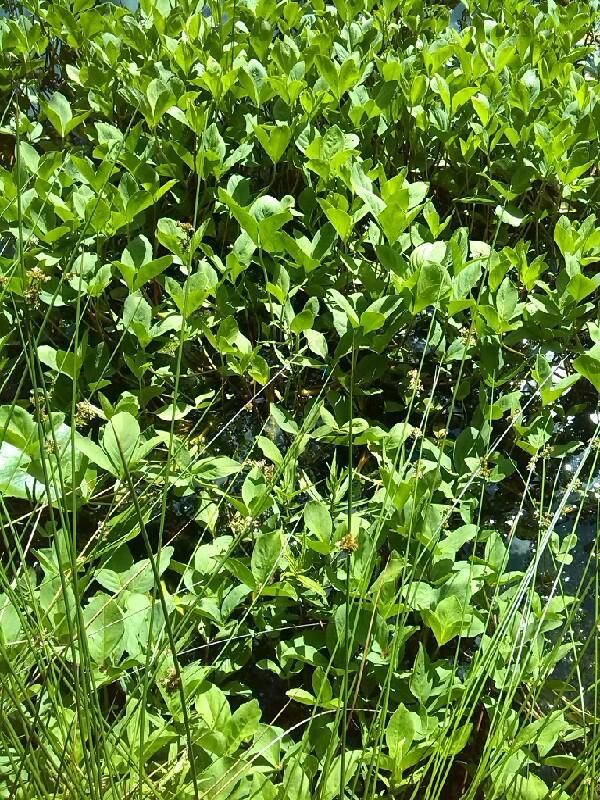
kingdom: Plantae
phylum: Tracheophyta
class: Magnoliopsida
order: Asterales
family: Menyanthaceae
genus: Menyanthes
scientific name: Menyanthes trifoliata
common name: Bogbean
